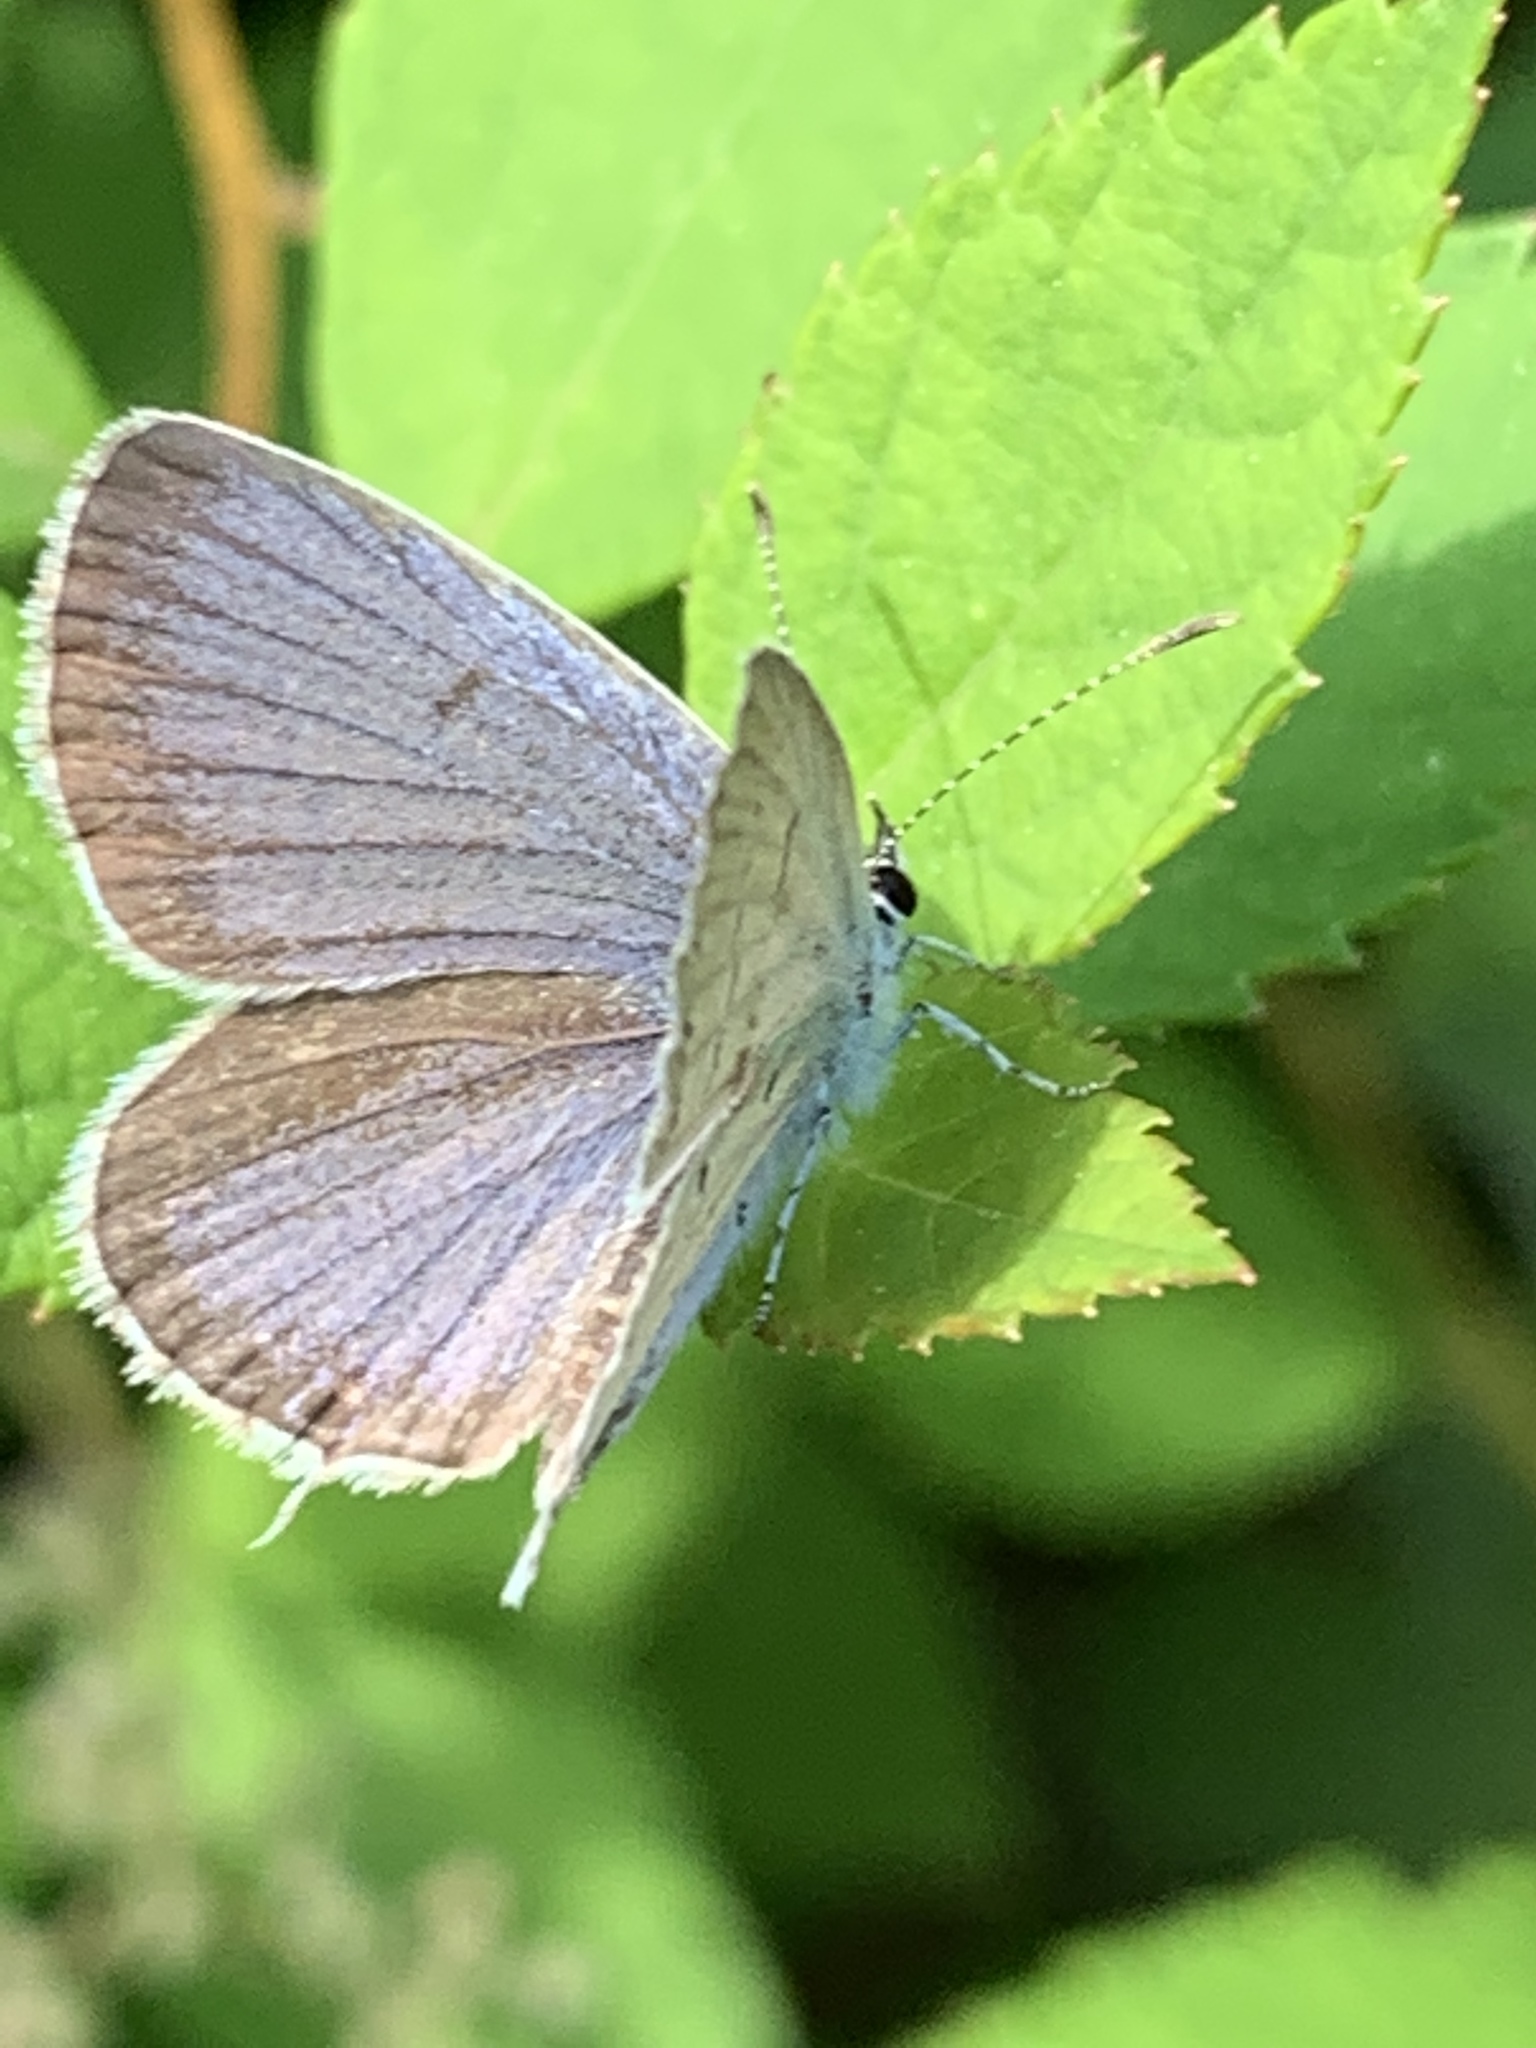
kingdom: Animalia
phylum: Arthropoda
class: Insecta
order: Lepidoptera
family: Lycaenidae
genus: Elkalyce
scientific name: Elkalyce comyntas
